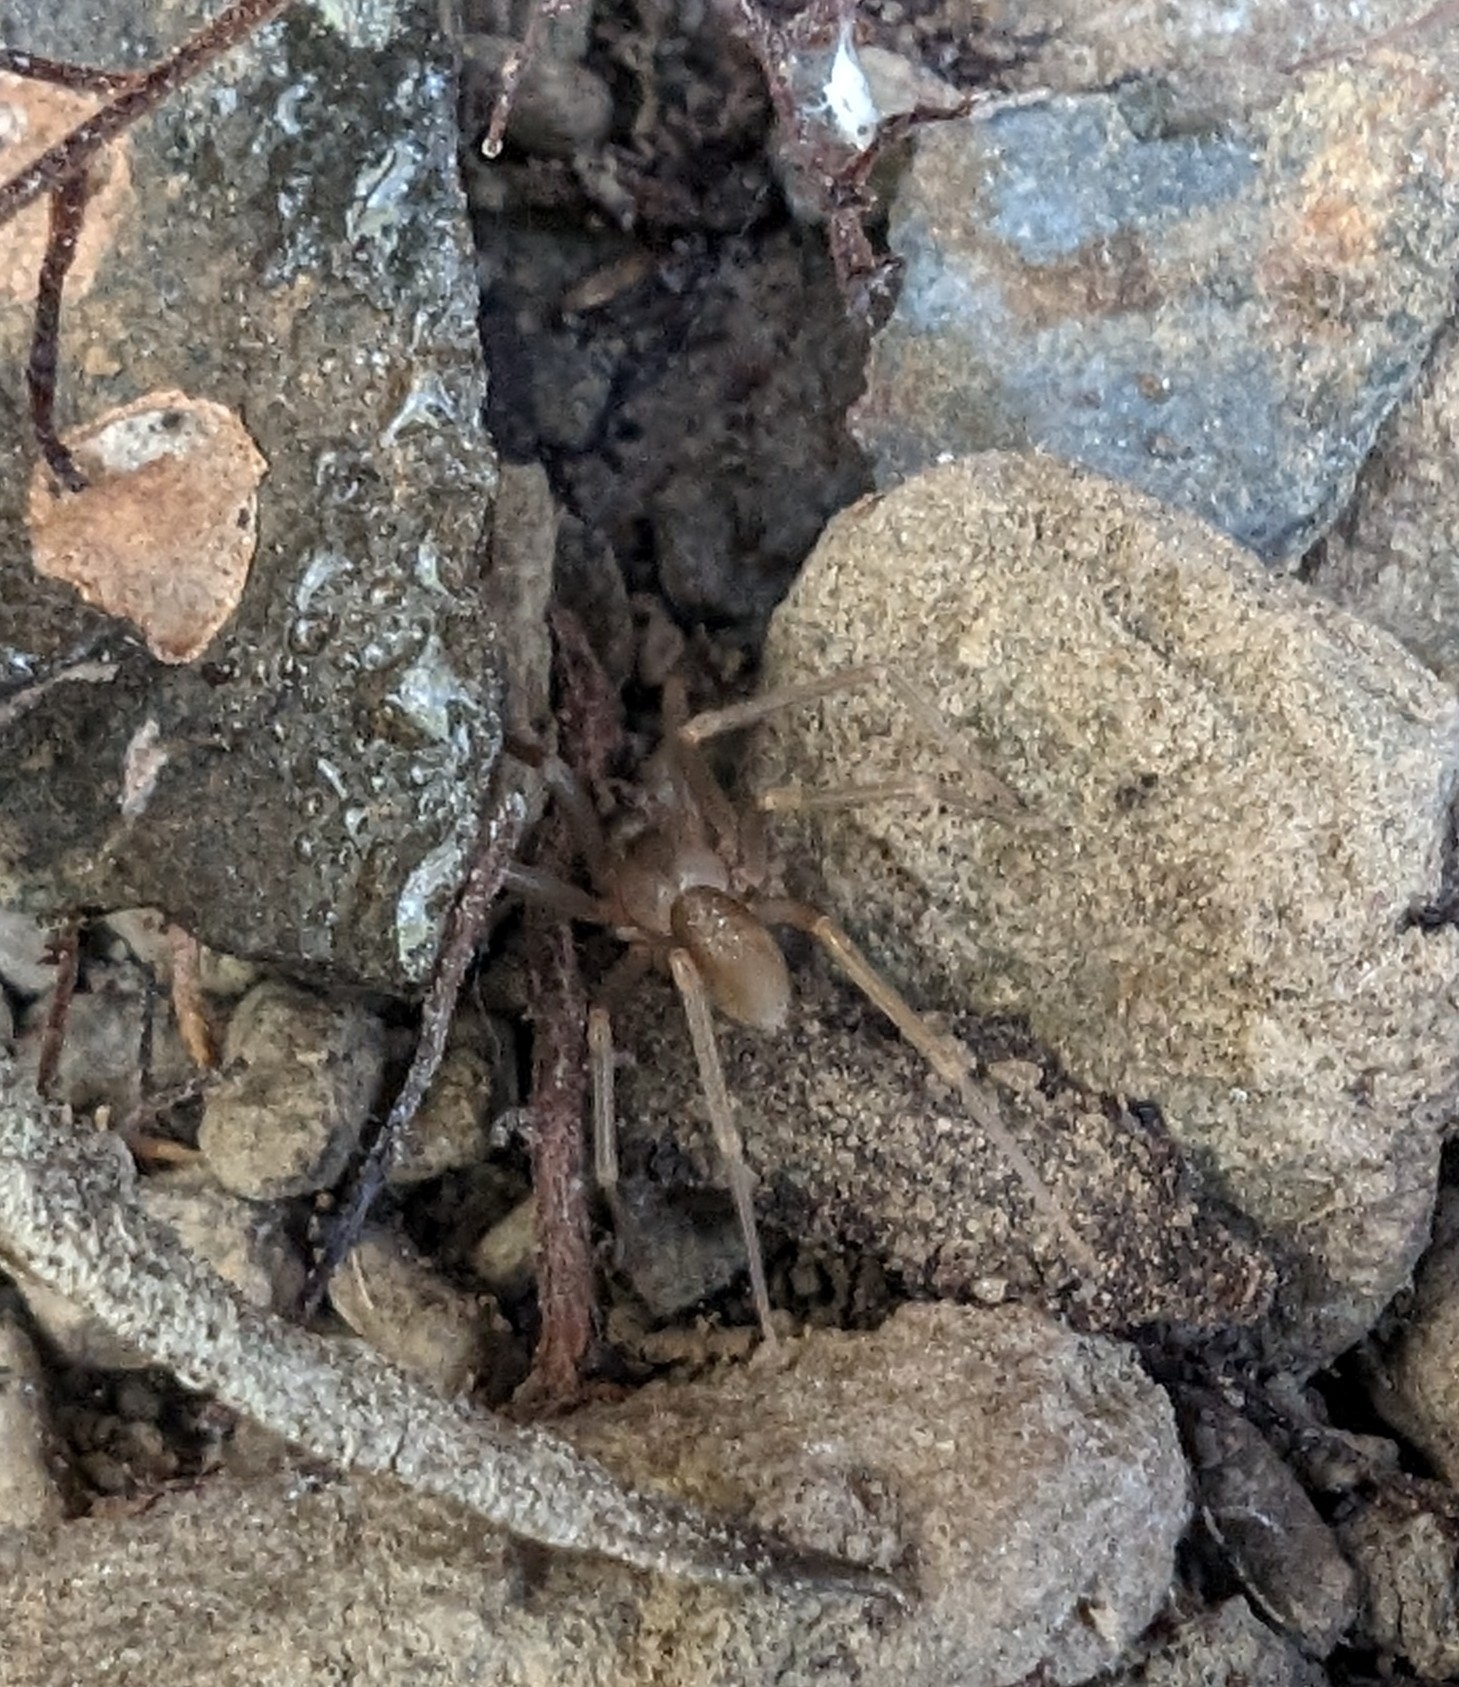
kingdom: Animalia
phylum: Arthropoda
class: Arachnida
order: Araneae
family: Sicariidae
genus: Loxosceles
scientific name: Loxosceles rufescens
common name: Mediterranean recluse spider
